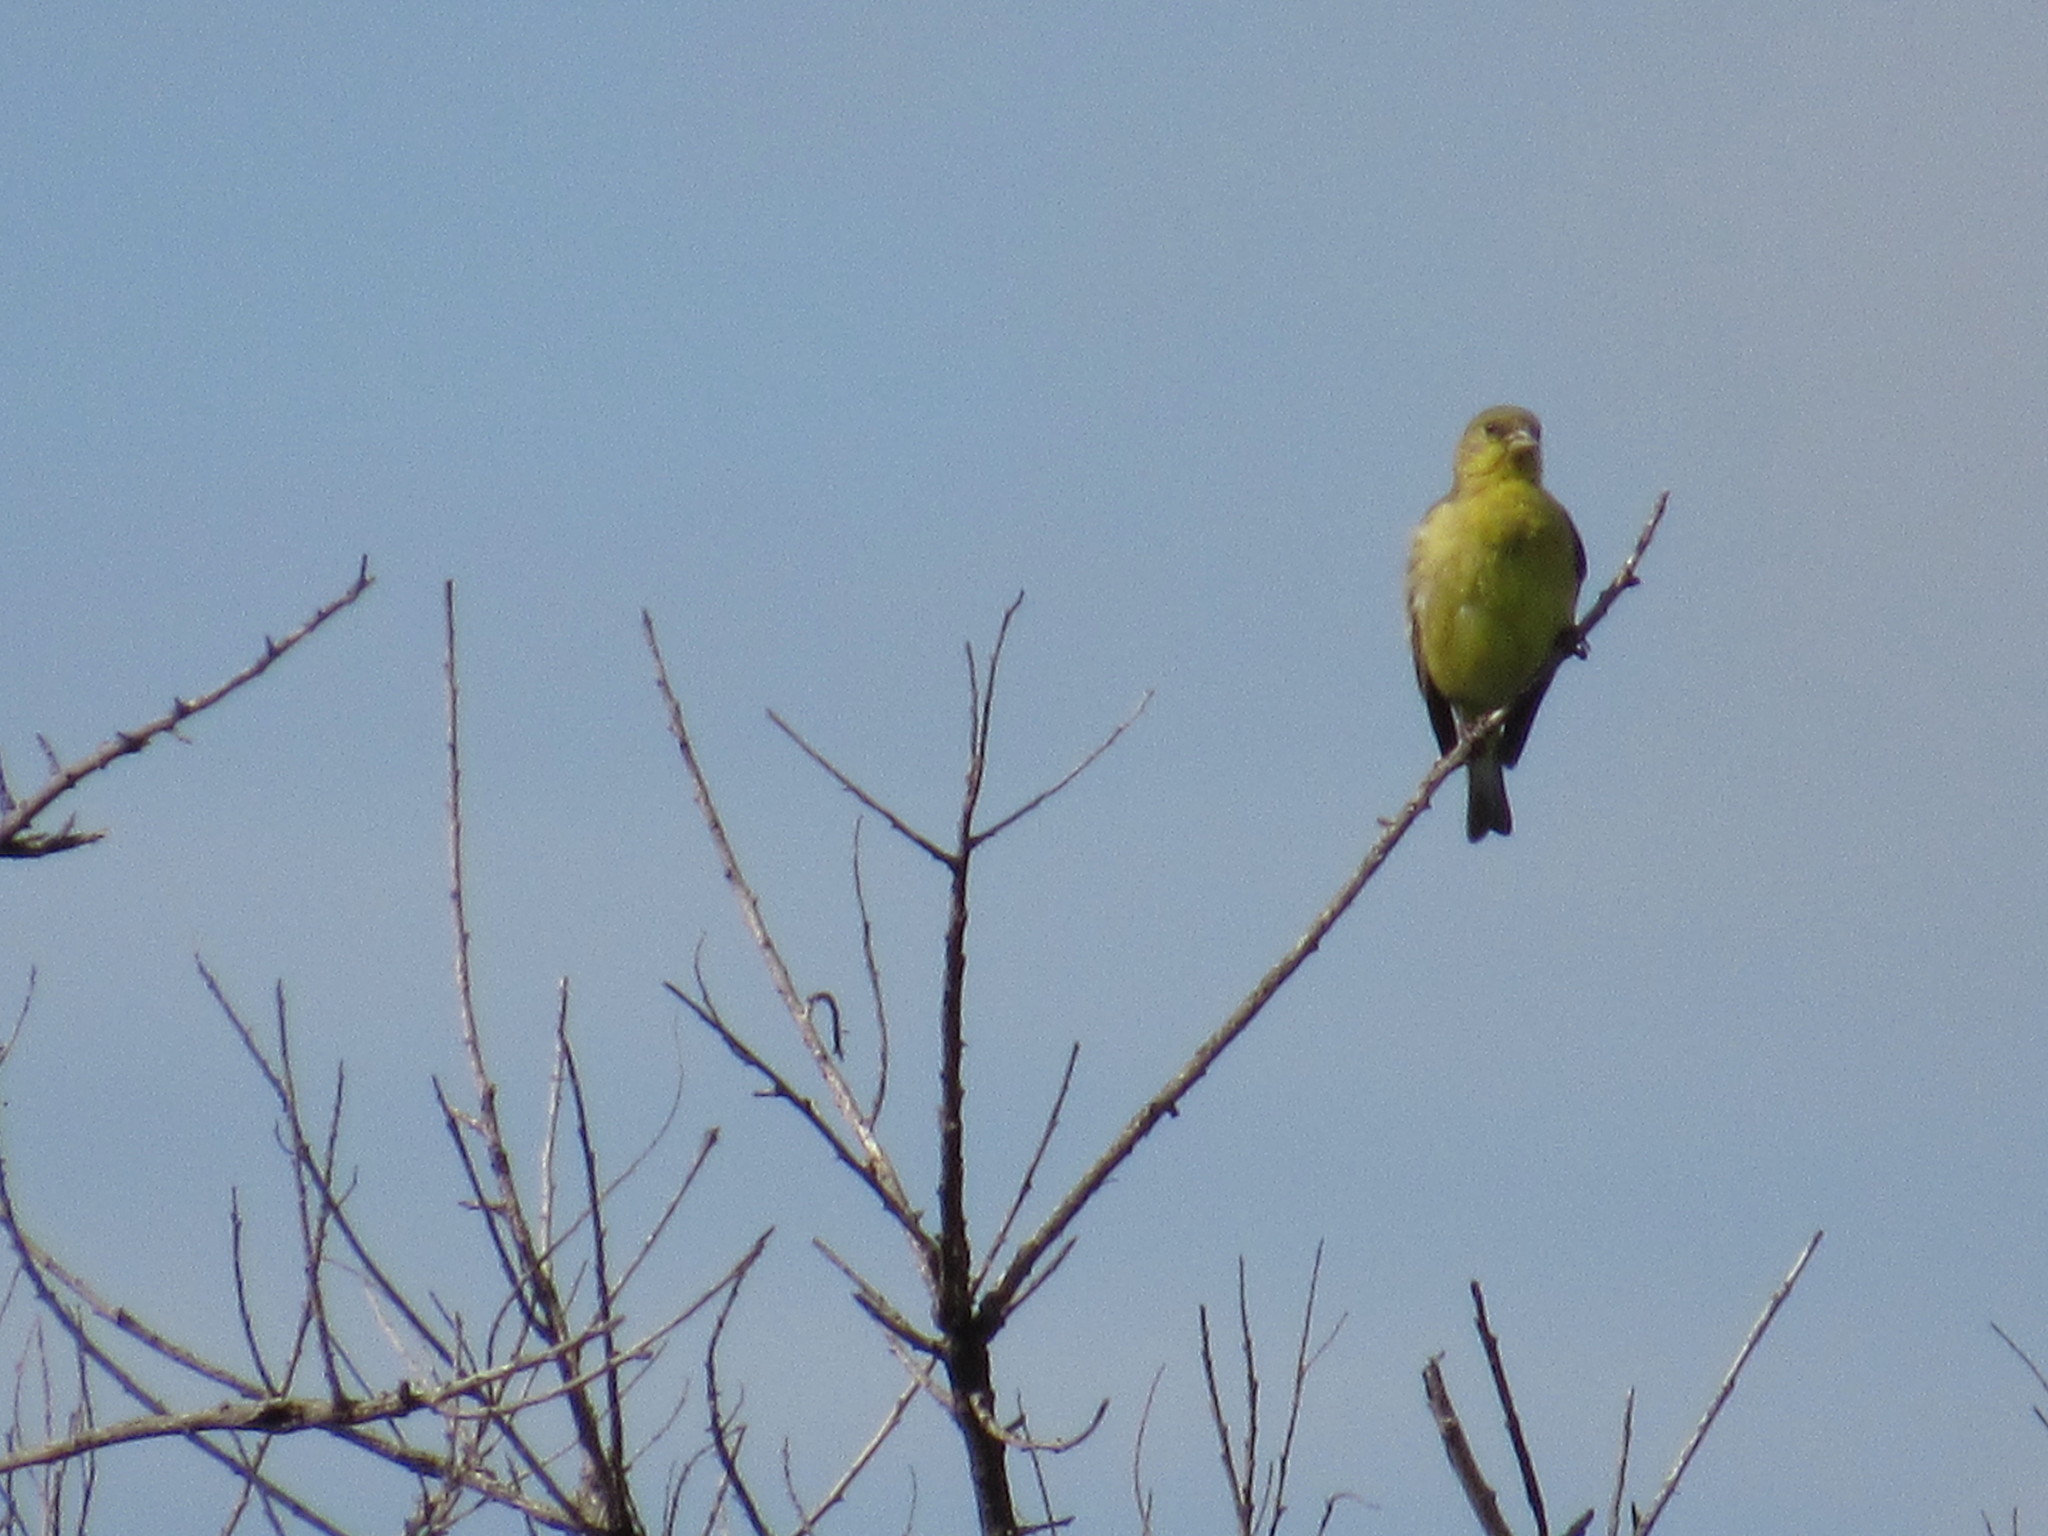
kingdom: Animalia
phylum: Chordata
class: Aves
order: Passeriformes
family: Fringillidae
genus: Spinus
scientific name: Spinus psaltria
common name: Lesser goldfinch
